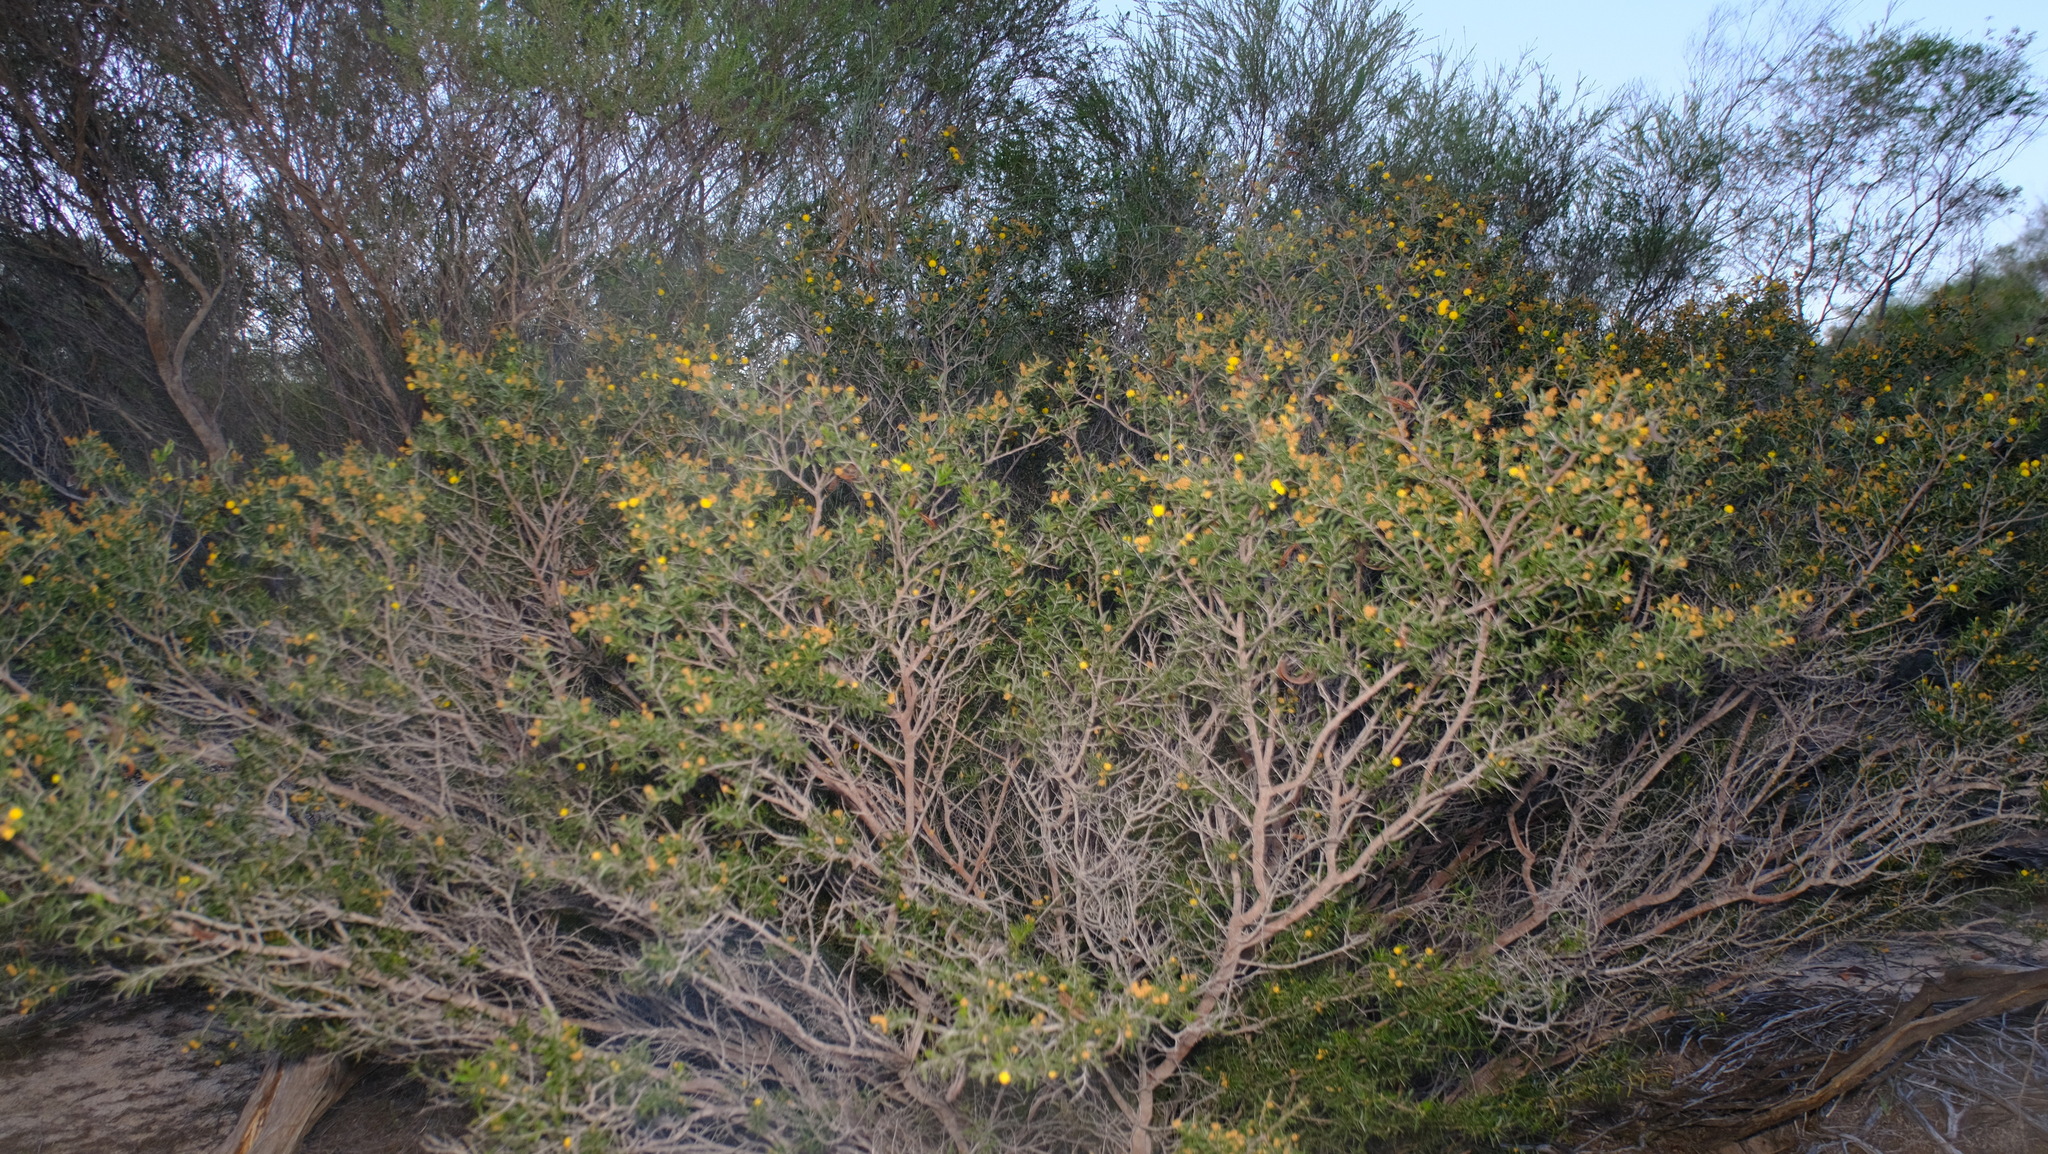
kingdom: Plantae
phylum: Tracheophyta
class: Magnoliopsida
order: Fabales
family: Fabaceae
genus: Acacia
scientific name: Acacia andrewsii
